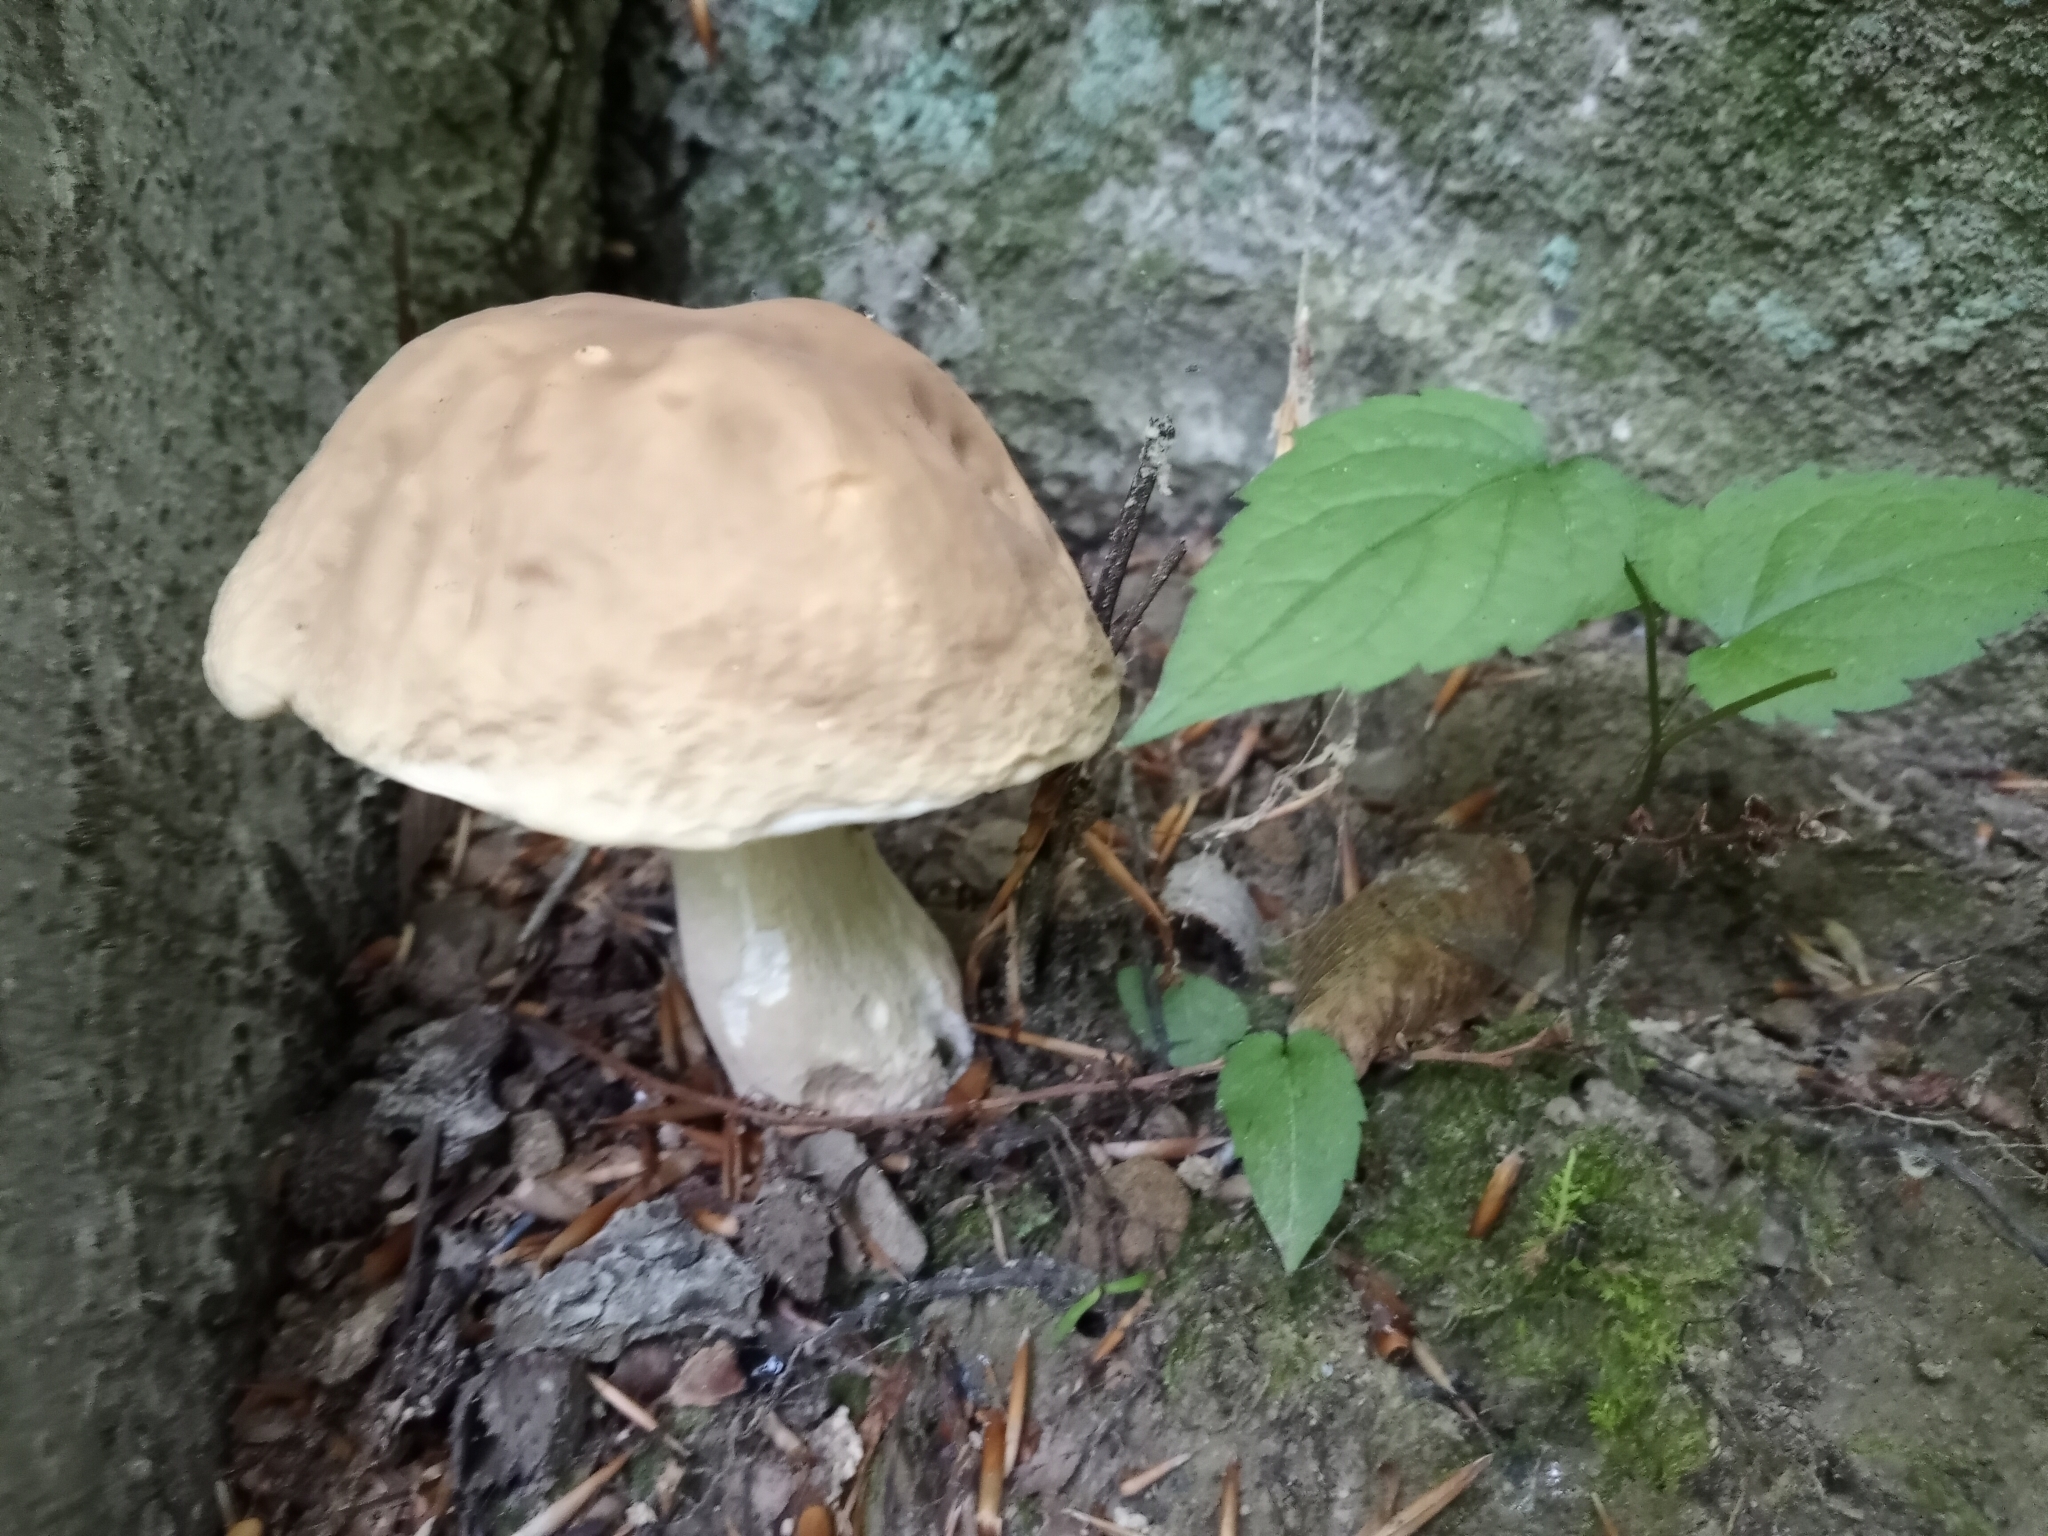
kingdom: Fungi
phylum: Basidiomycota
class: Agaricomycetes
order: Boletales
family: Boletaceae
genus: Xanthoconium
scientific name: Xanthoconium separans
